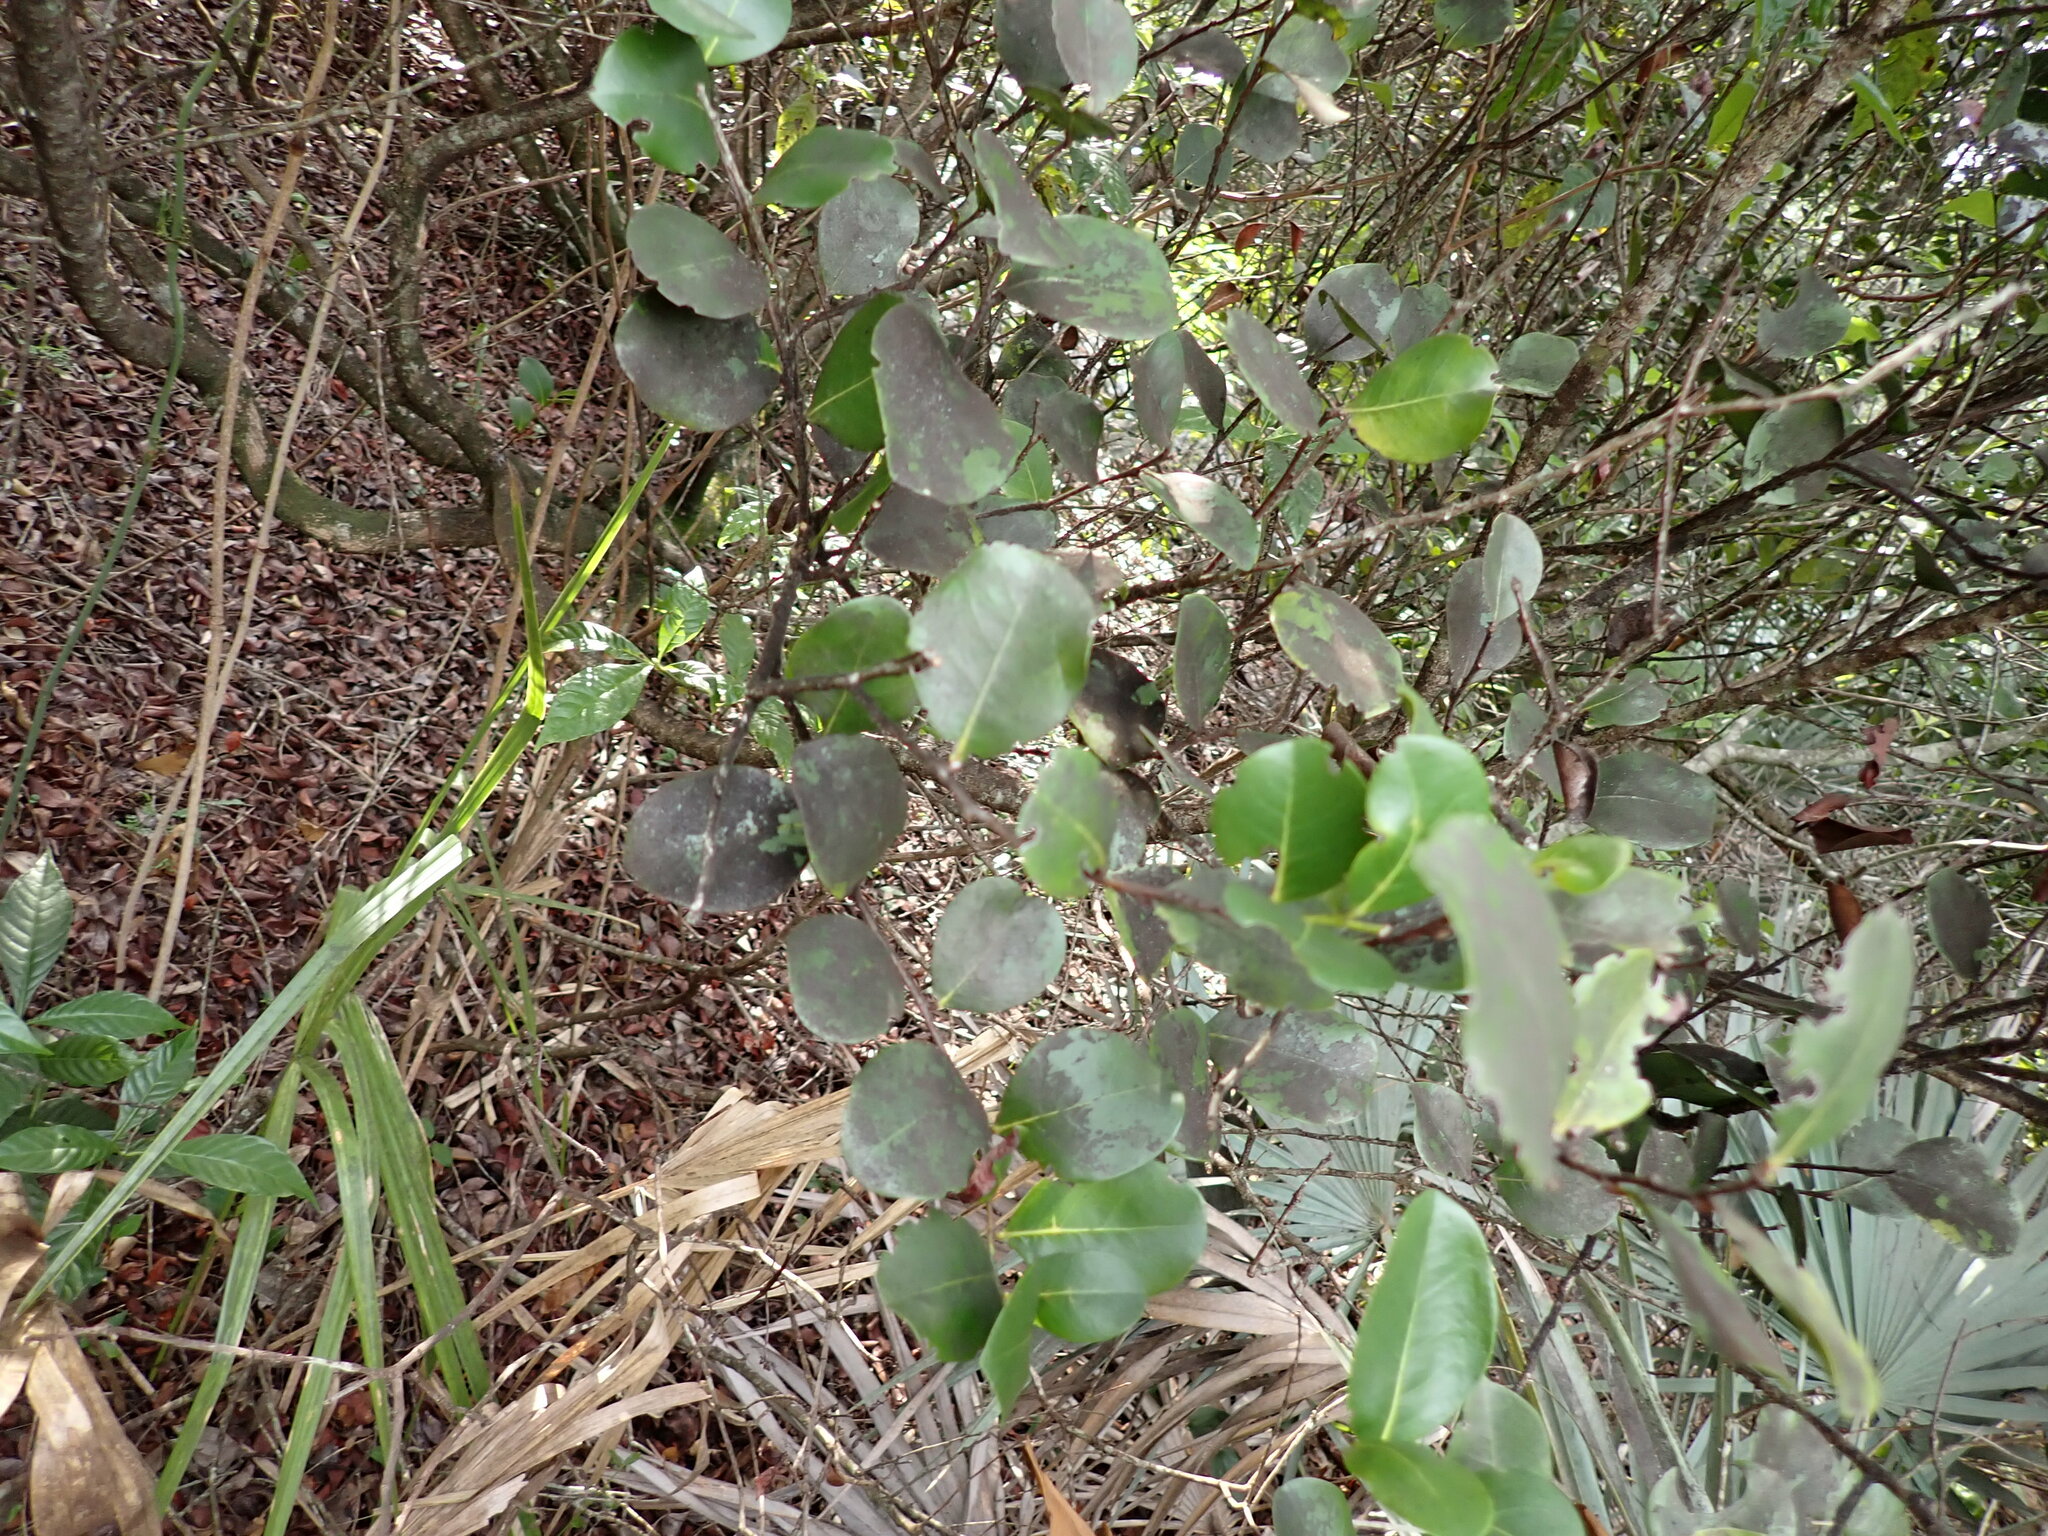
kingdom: Plantae
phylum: Tracheophyta
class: Magnoliopsida
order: Malpighiales
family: Chrysobalanaceae
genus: Chrysobalanus
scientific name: Chrysobalanus icaco
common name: Coco plum
